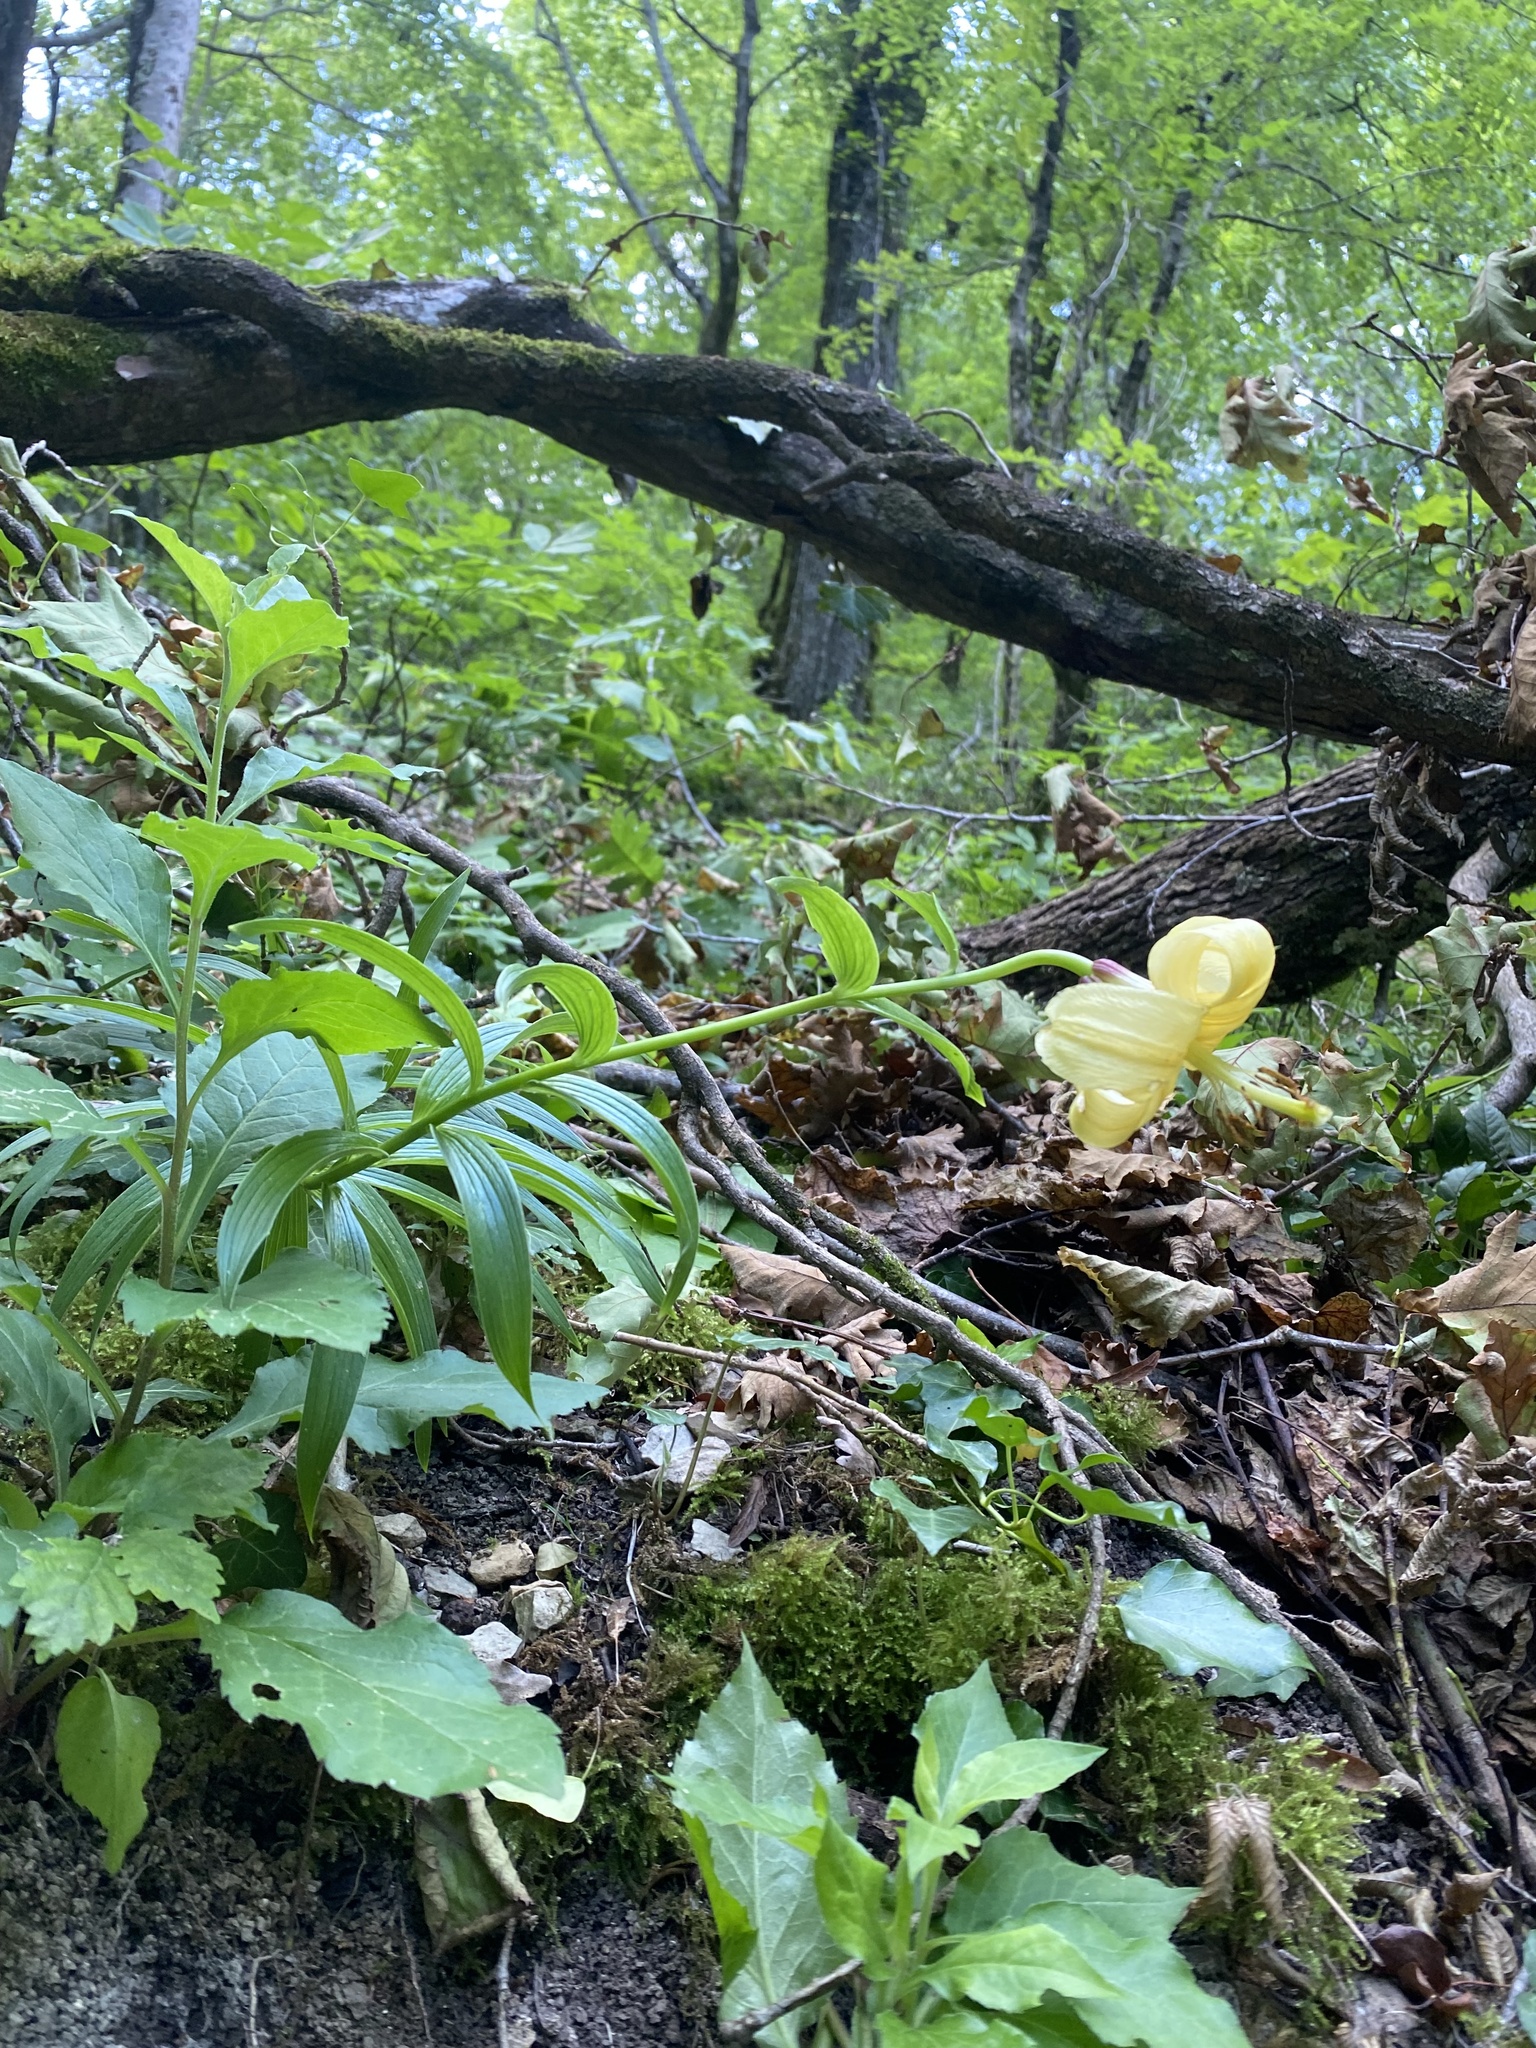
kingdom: Plantae
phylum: Tracheophyta
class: Liliopsida
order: Liliales
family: Liliaceae
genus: Lilium
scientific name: Lilium monadelphum
